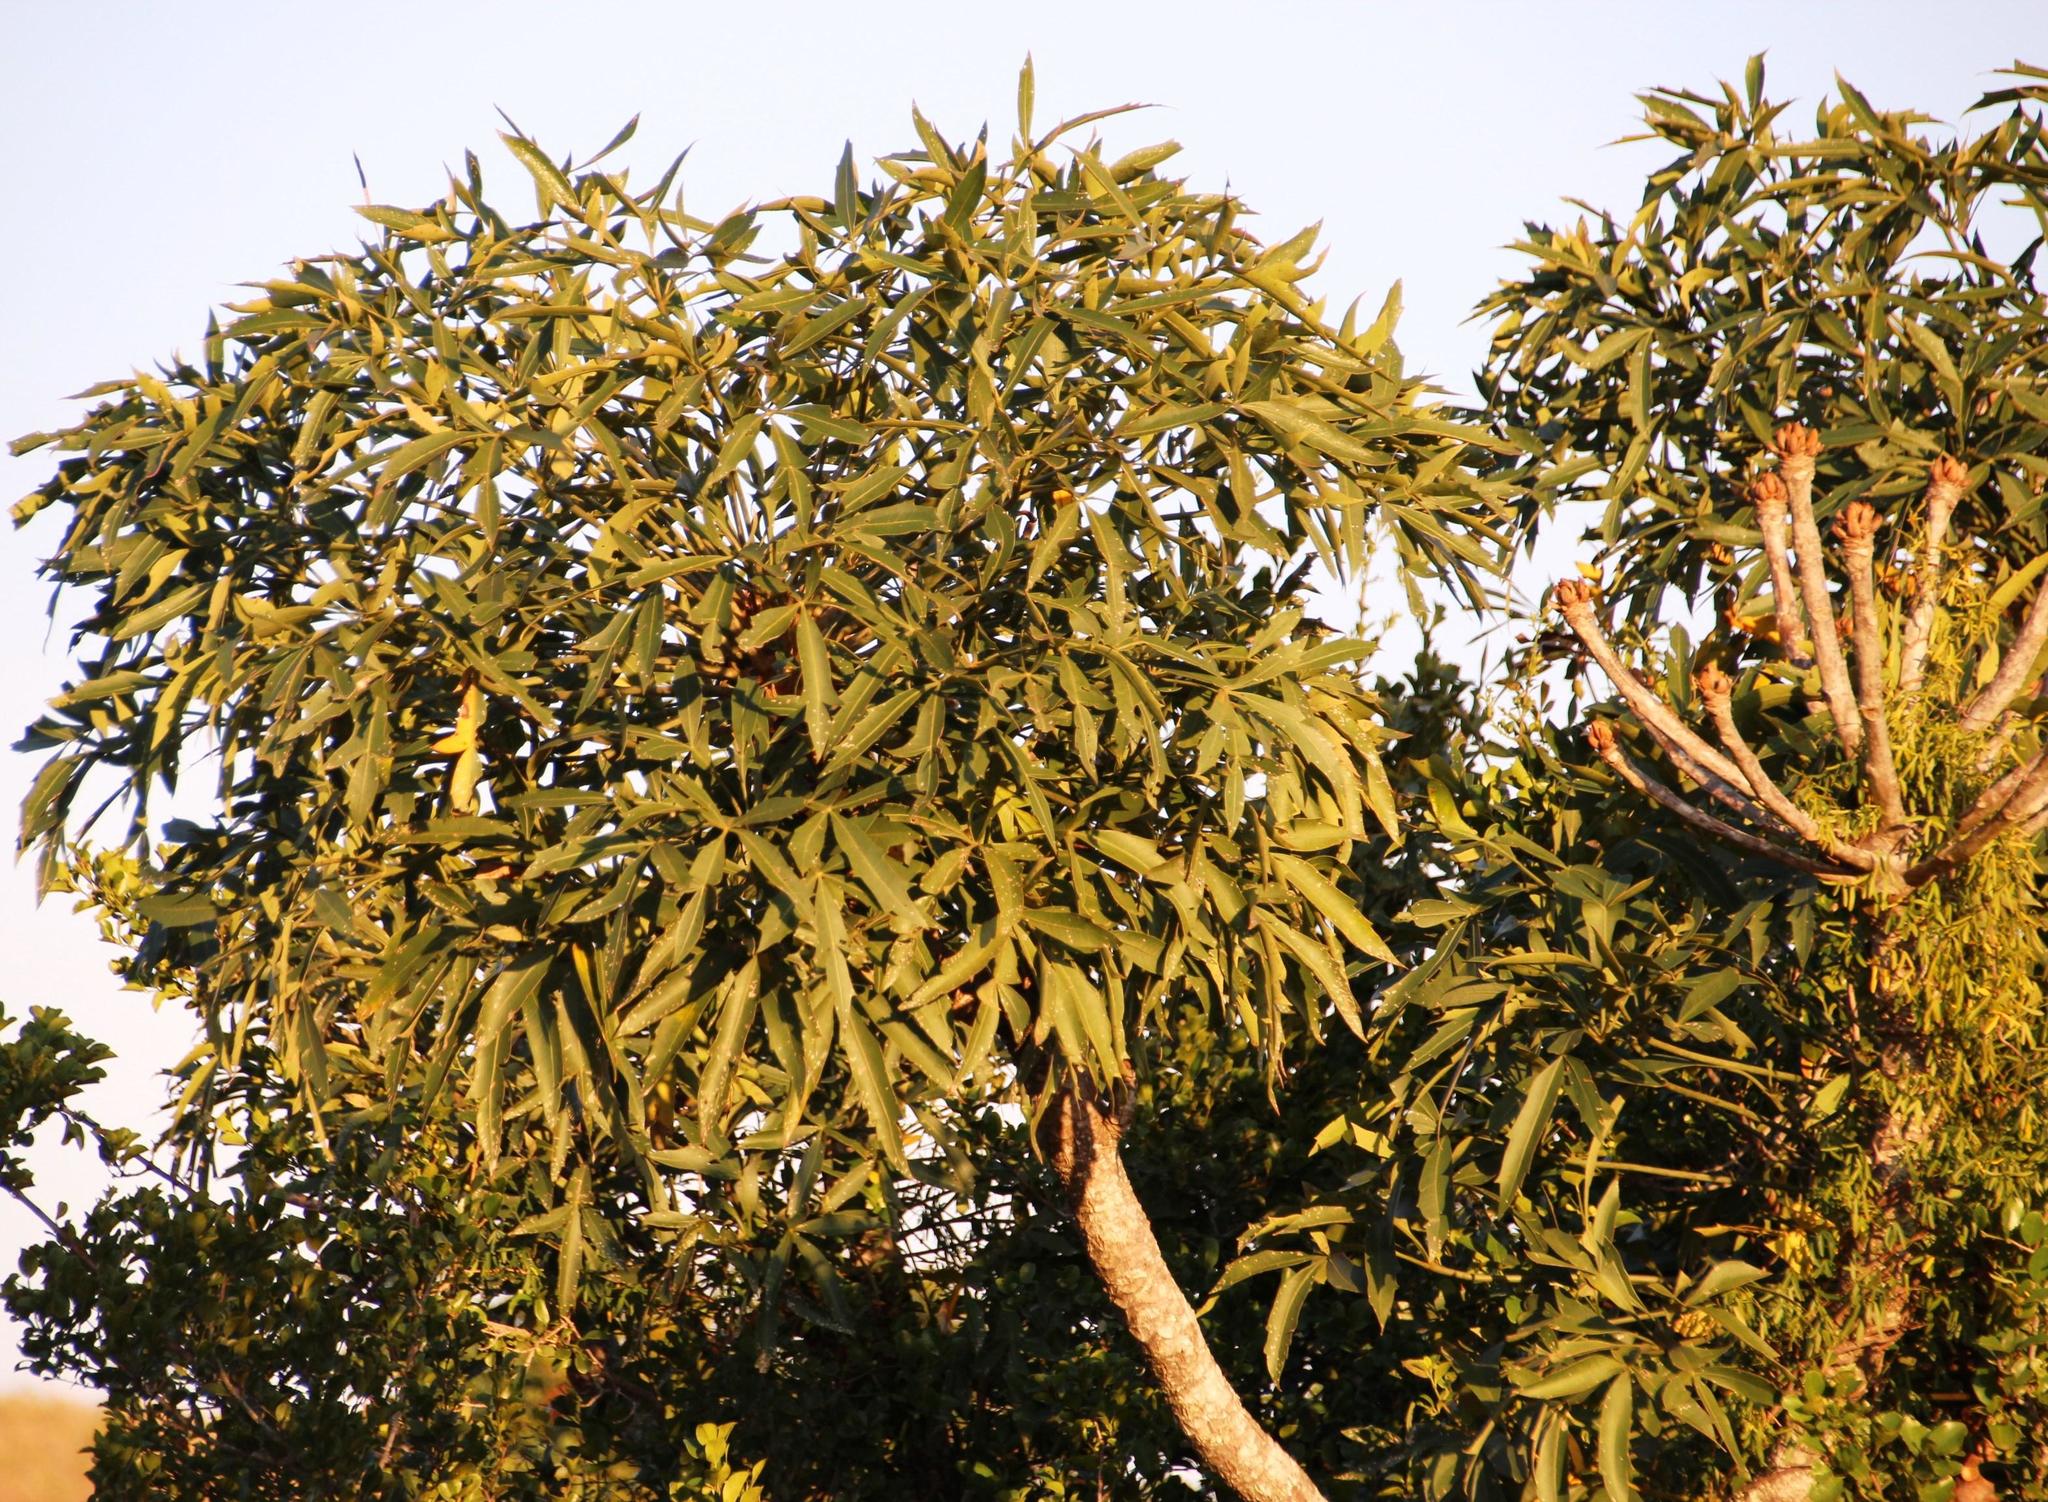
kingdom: Plantae
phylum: Tracheophyta
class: Magnoliopsida
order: Apiales
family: Araliaceae
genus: Cussonia
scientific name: Cussonia spicata
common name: Common cabbagetree
